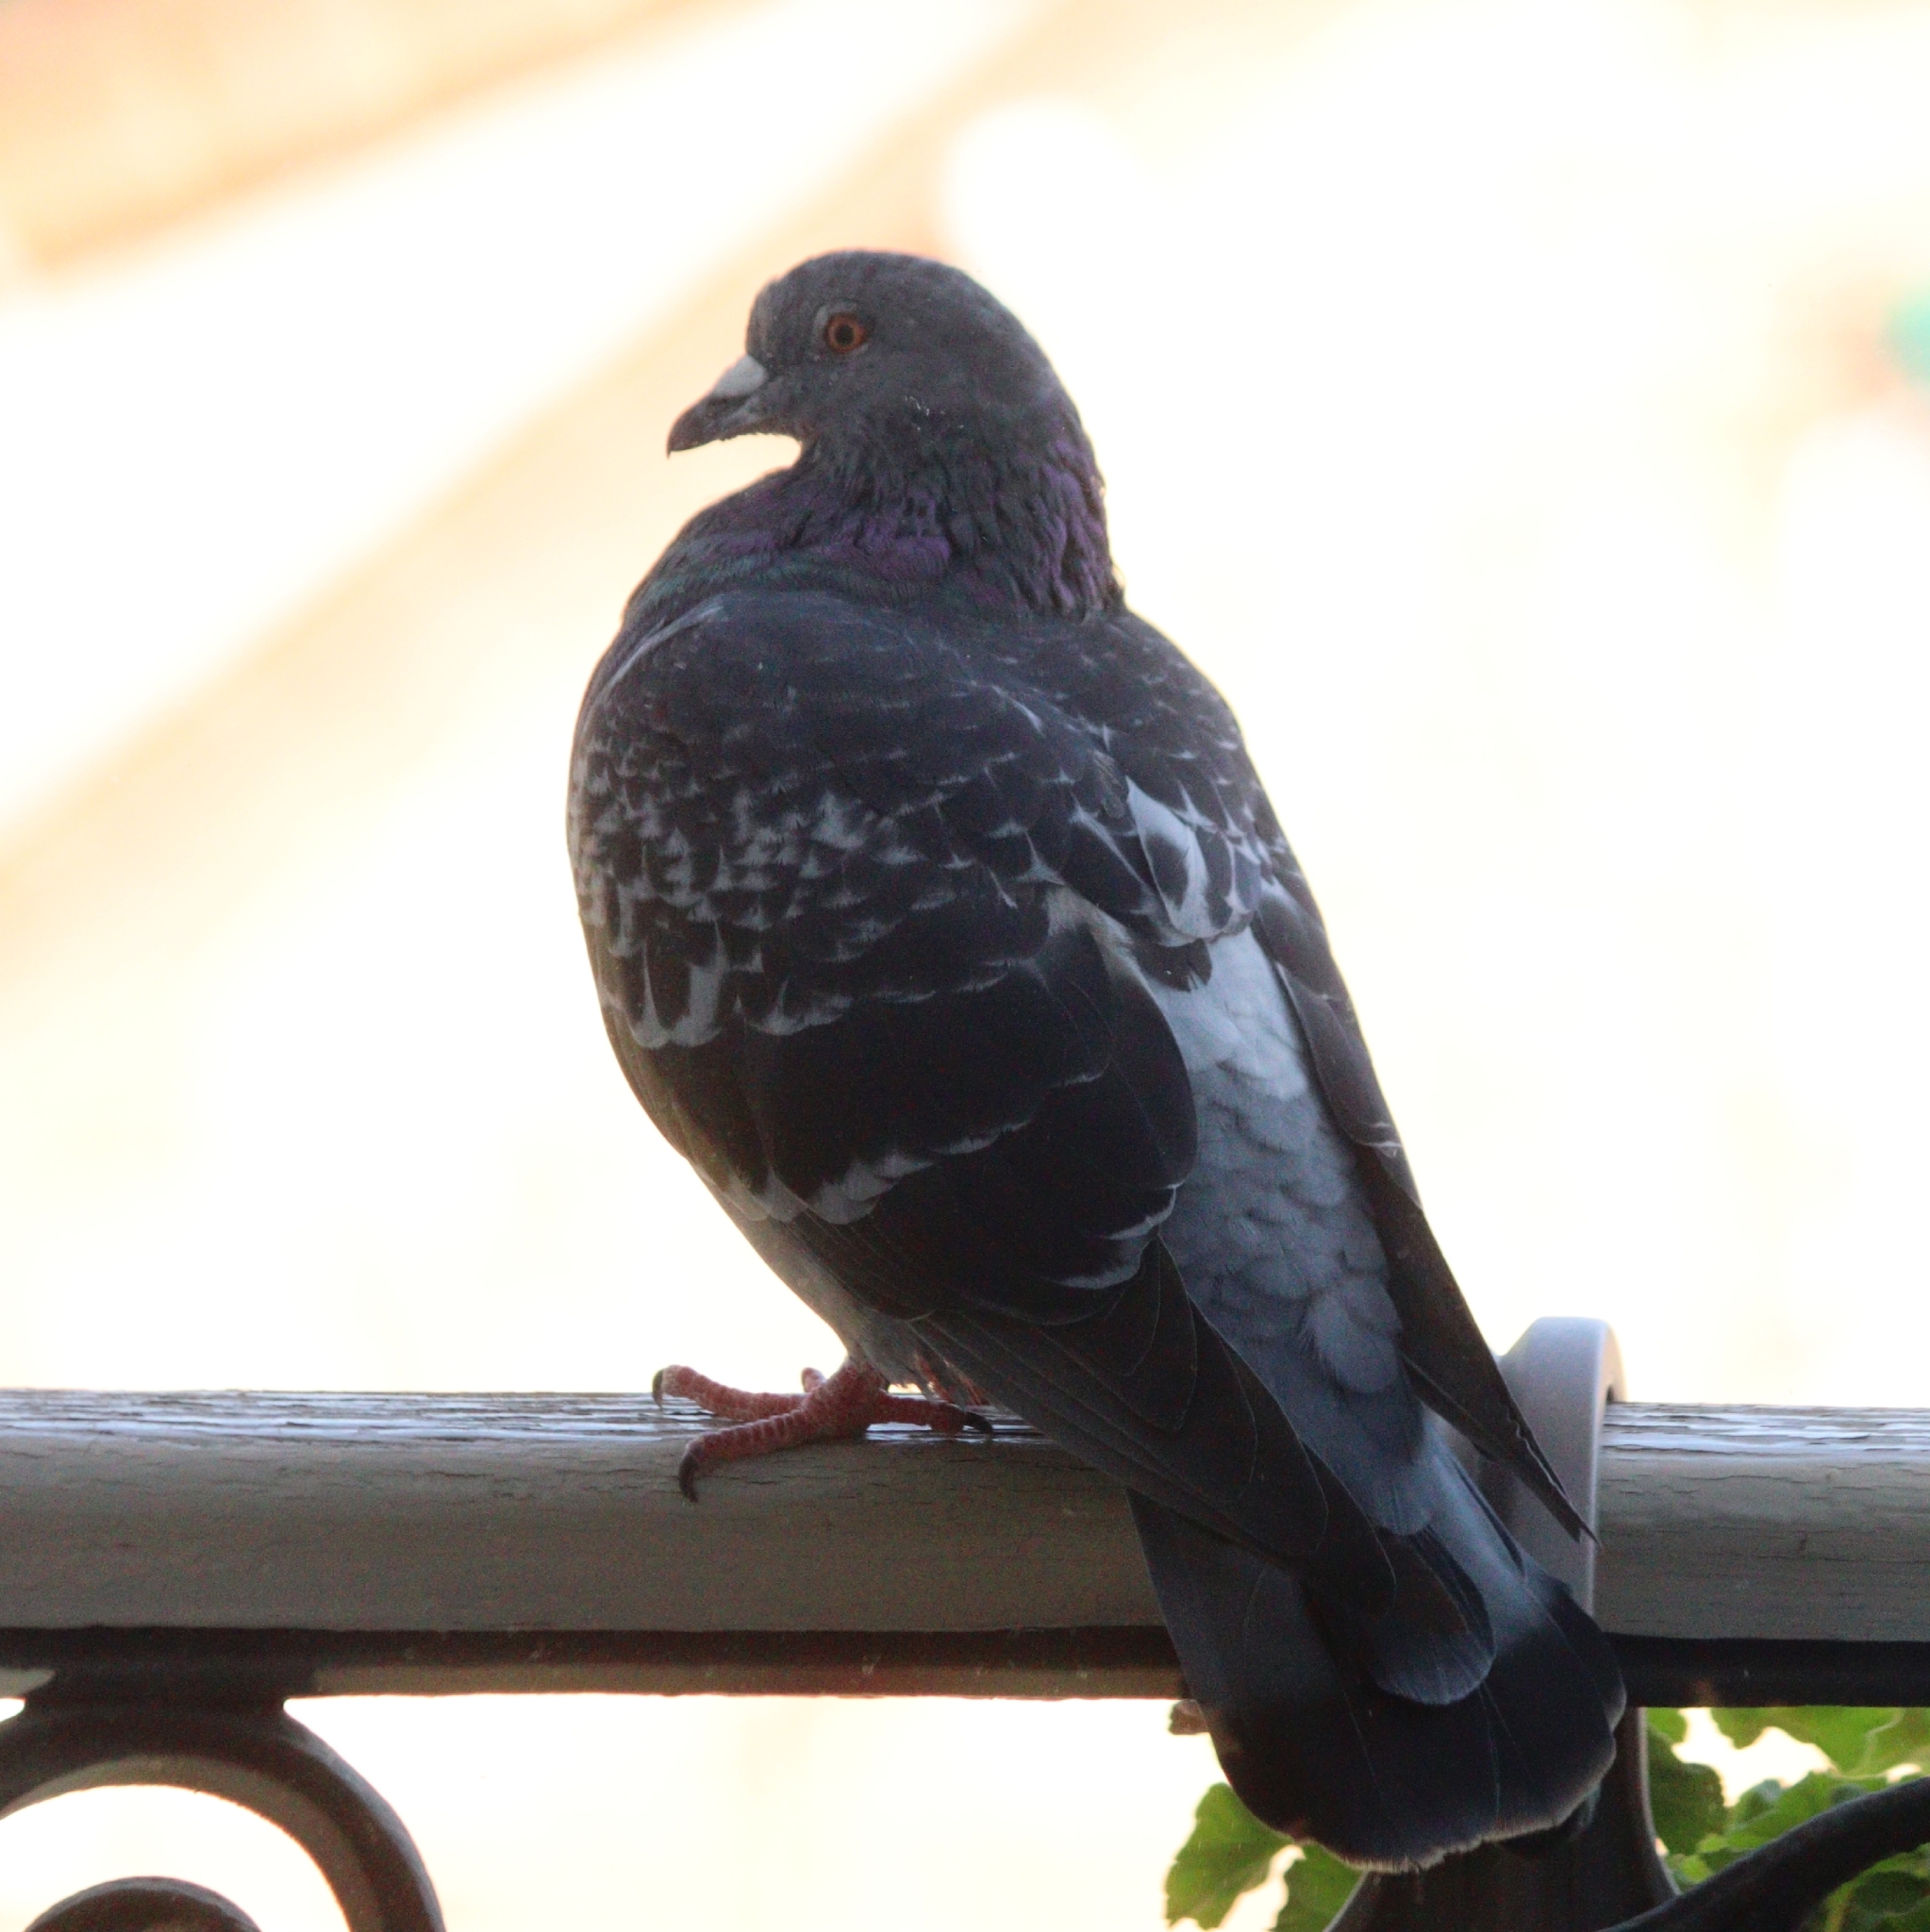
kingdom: Animalia
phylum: Chordata
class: Aves
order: Columbiformes
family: Columbidae
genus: Columba
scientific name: Columba livia
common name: Rock pigeon
